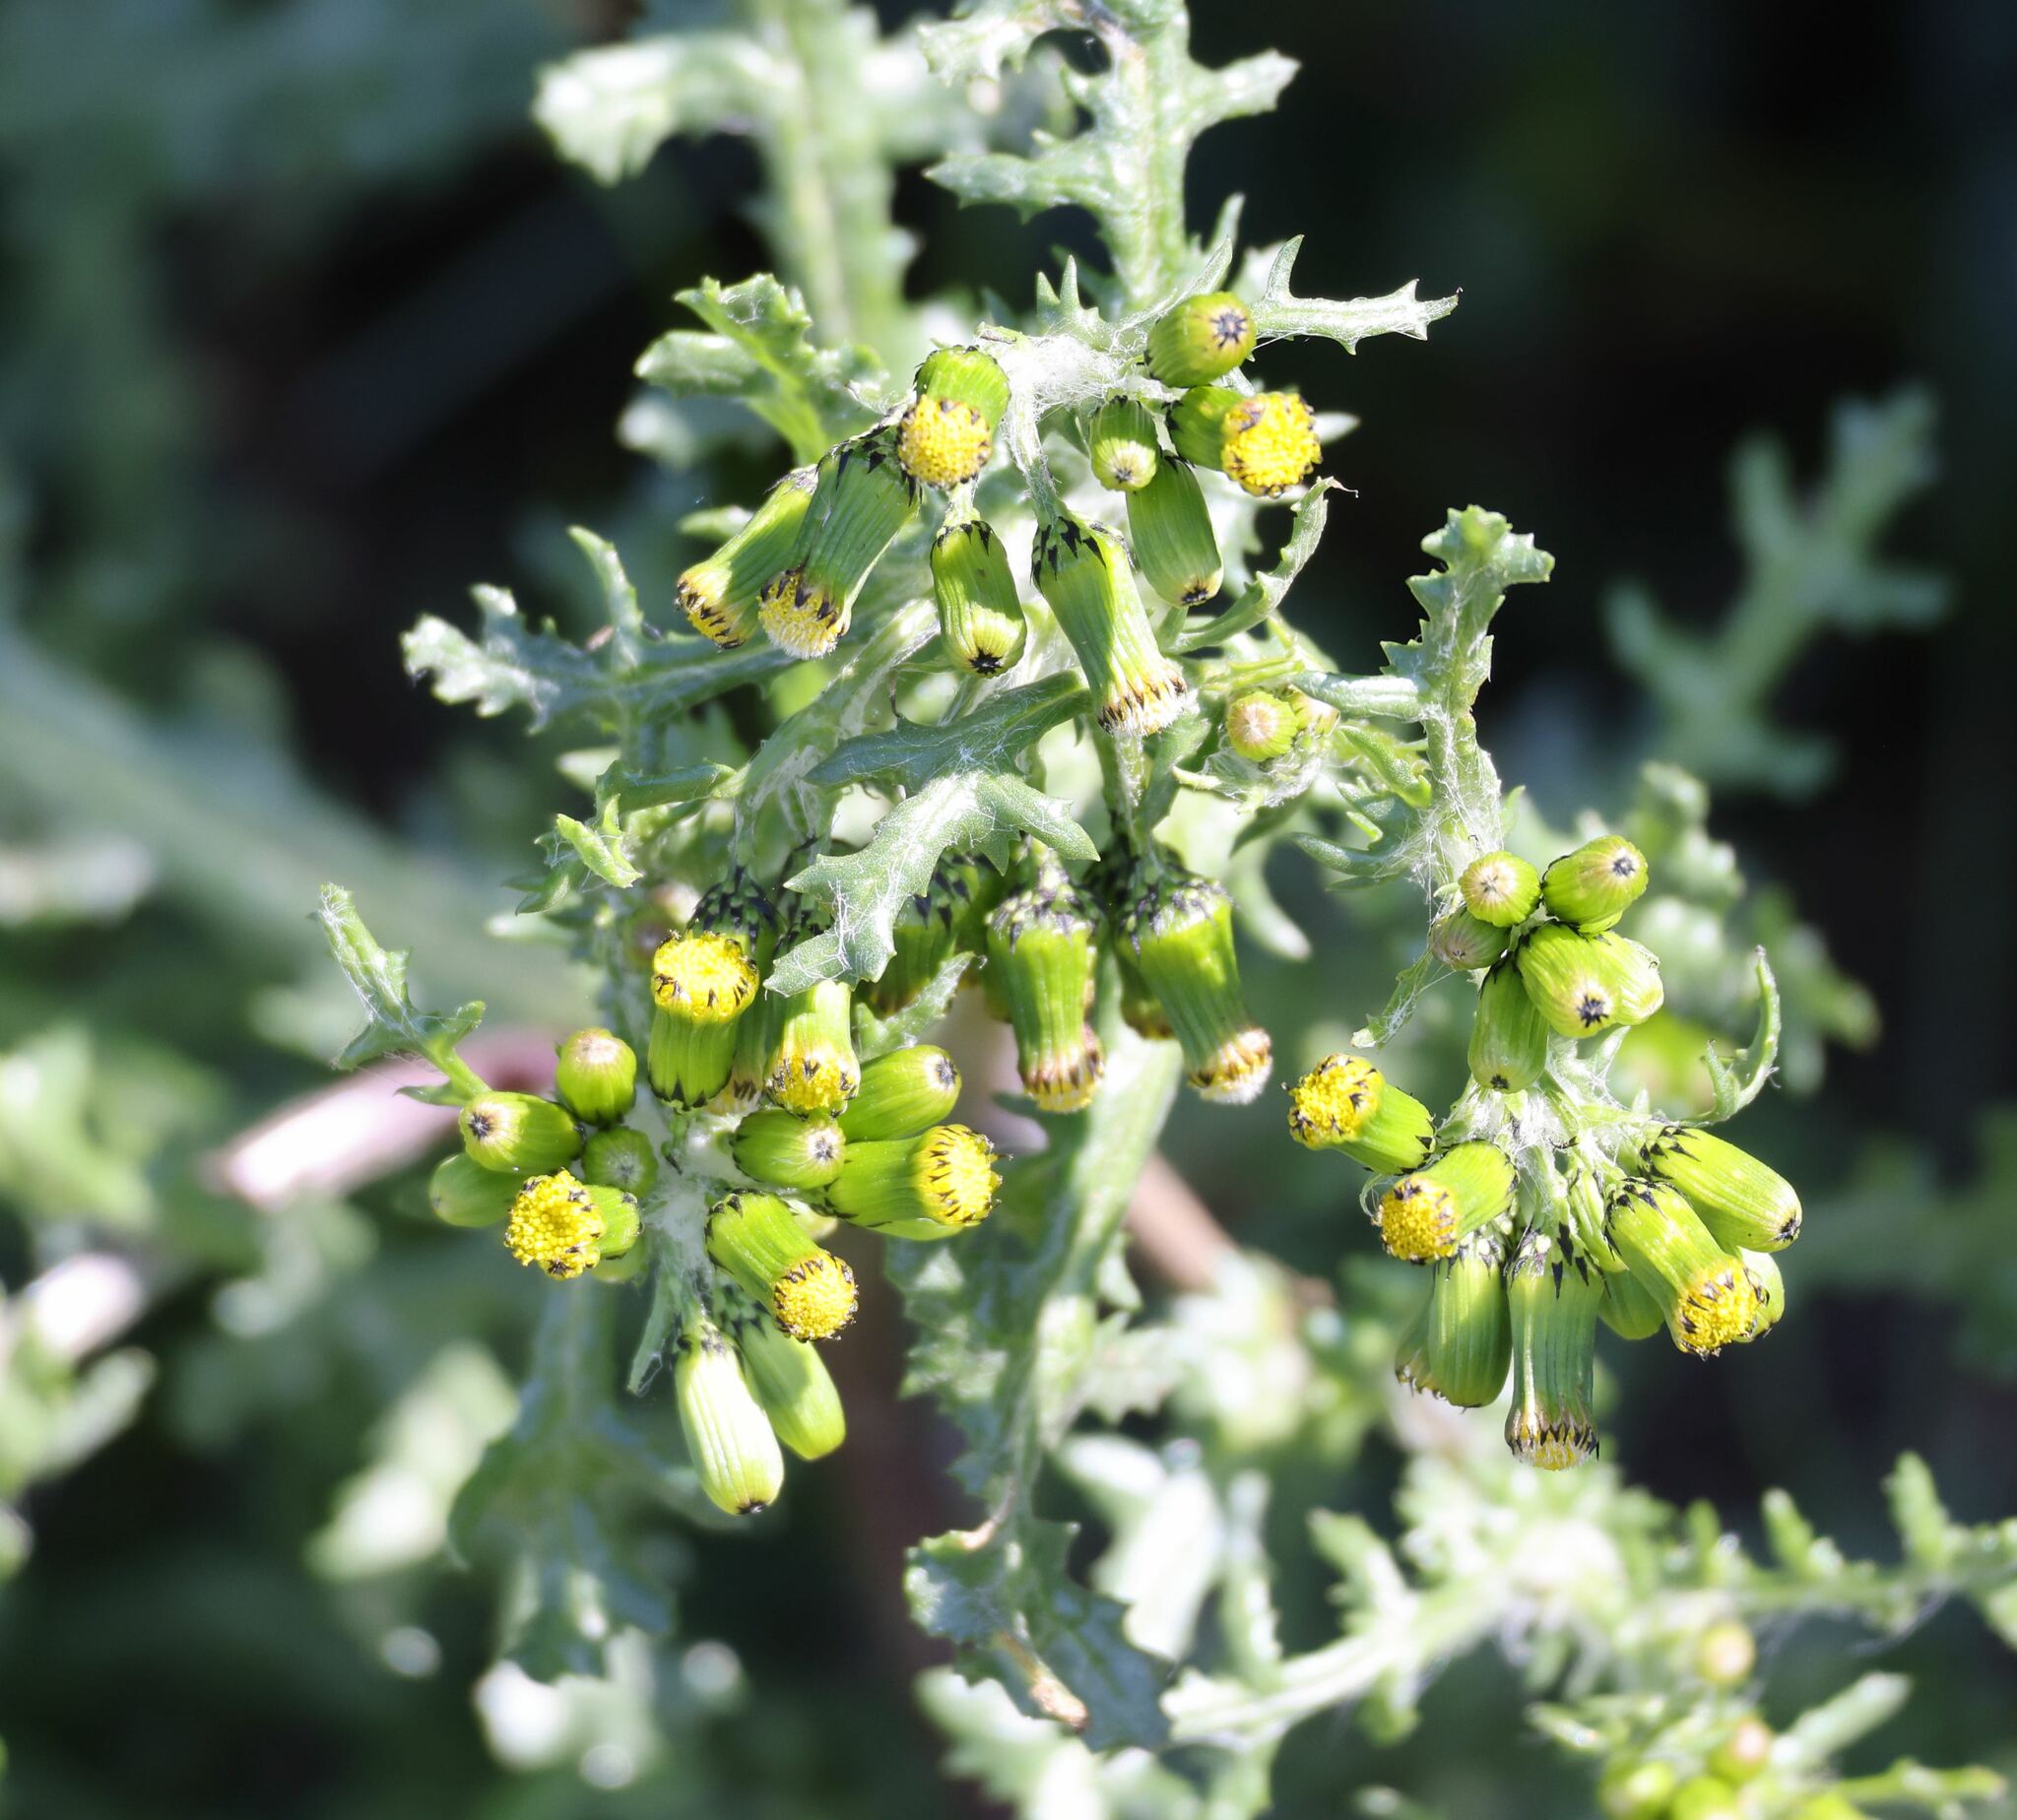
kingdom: Plantae
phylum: Tracheophyta
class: Magnoliopsida
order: Asterales
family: Asteraceae
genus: Senecio
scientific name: Senecio vulgaris
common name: Old-man-in-the-spring
